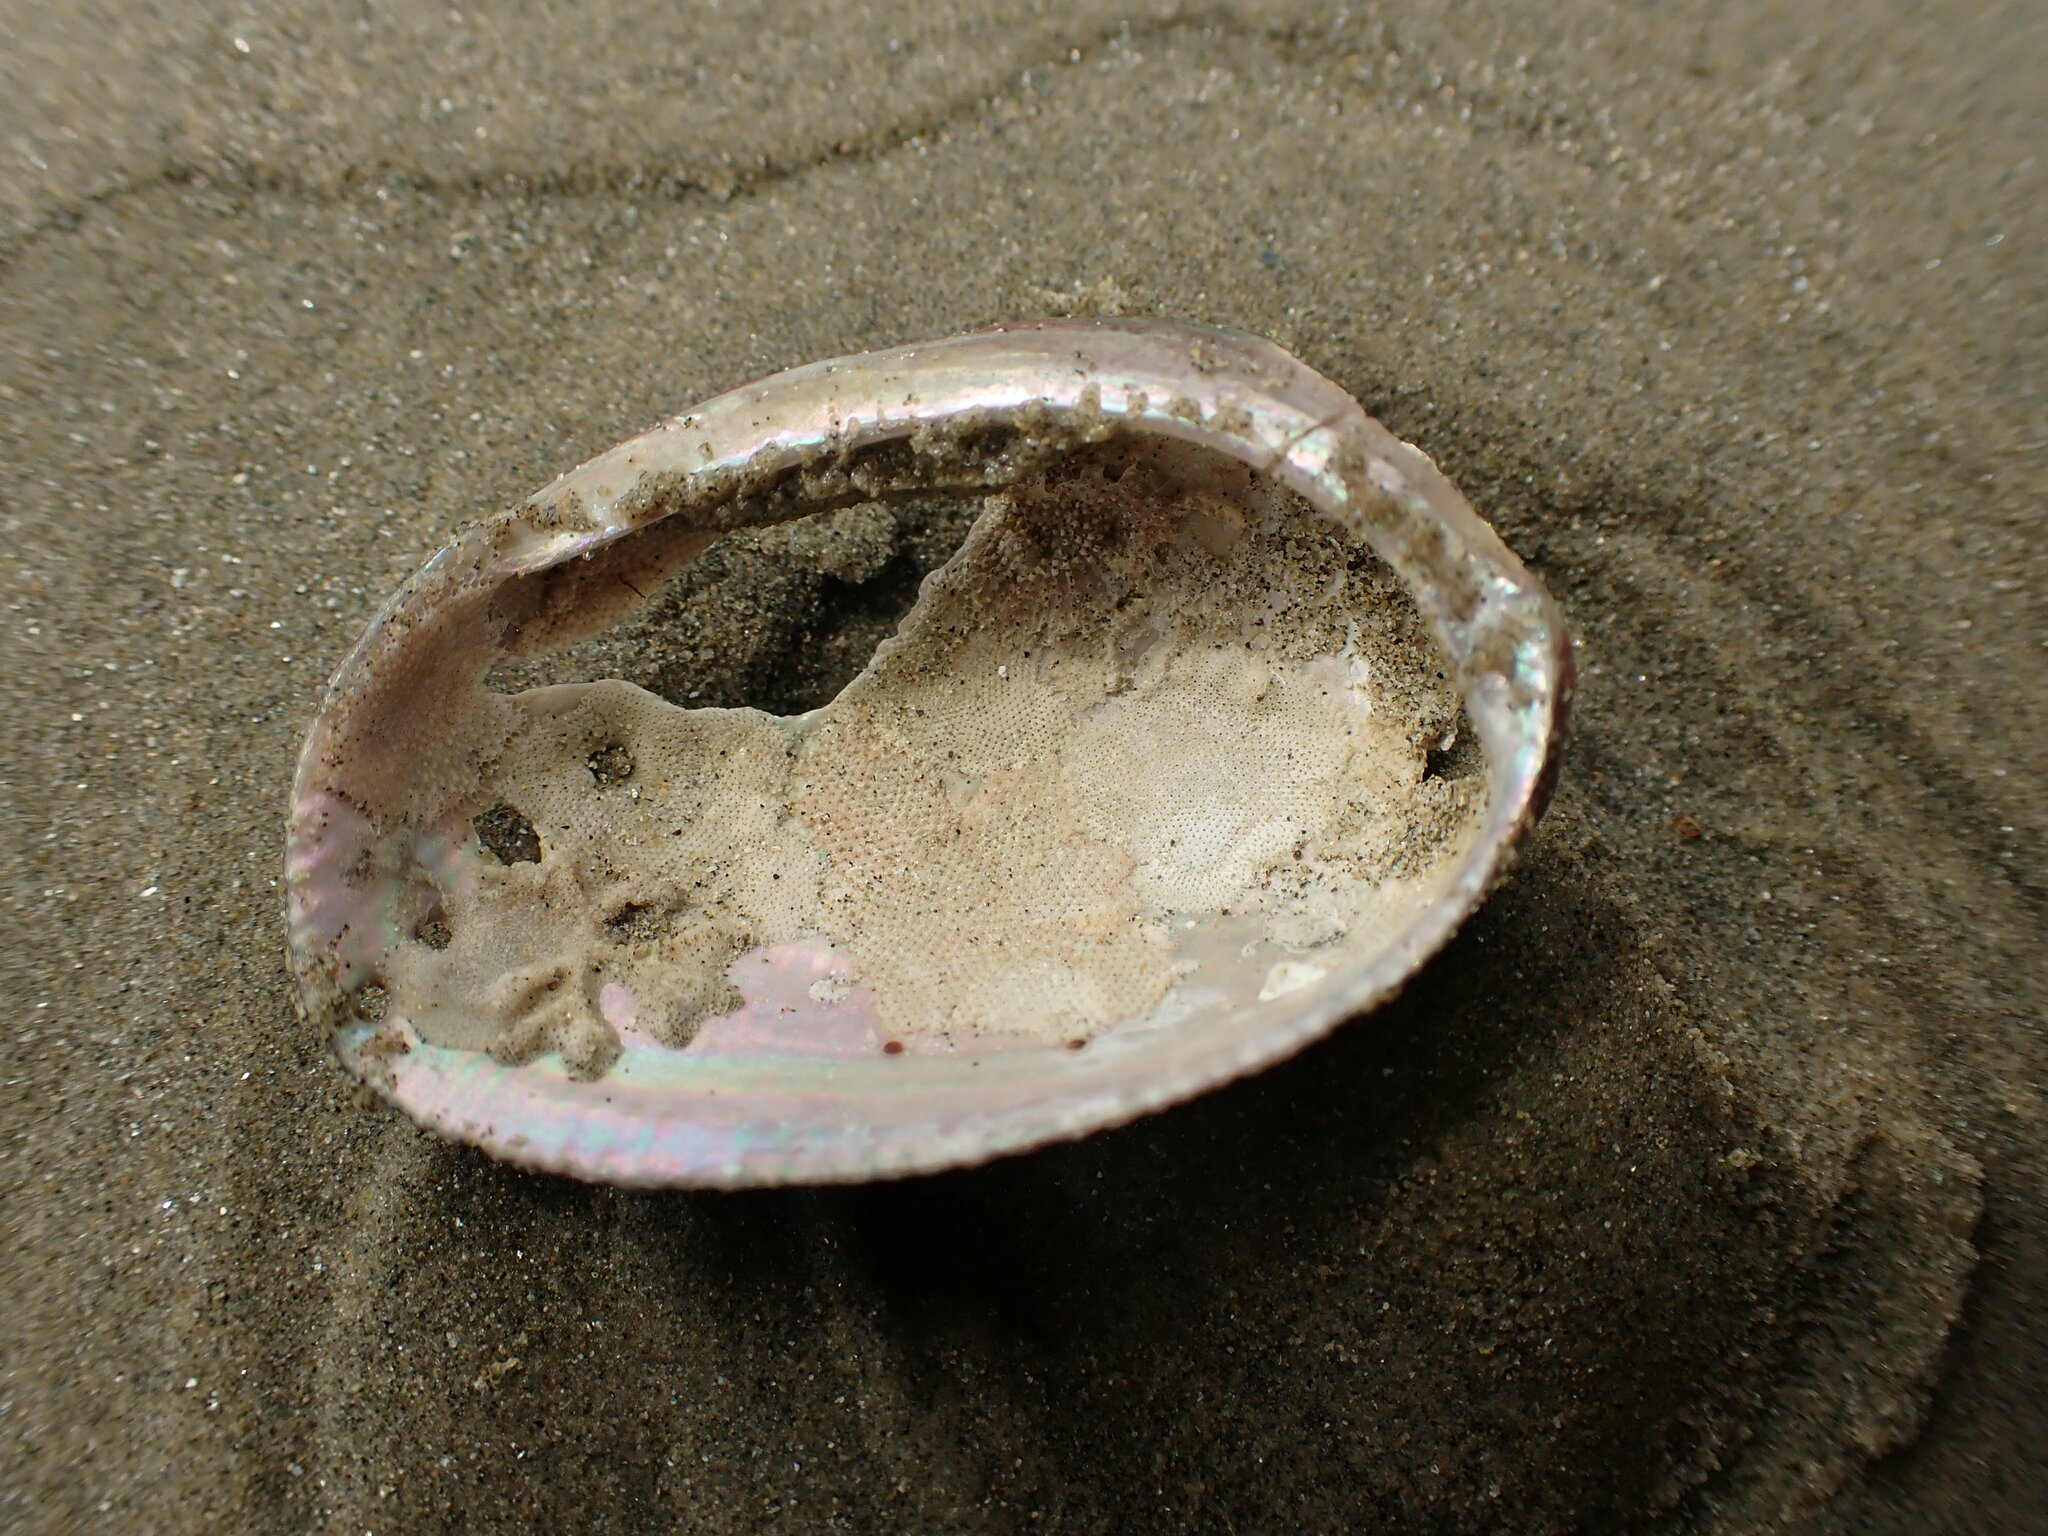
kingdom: Animalia
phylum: Mollusca
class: Gastropoda
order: Lepetellida
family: Haliotidae
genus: Haliotis
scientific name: Haliotis virginea
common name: Whitefoot paua
